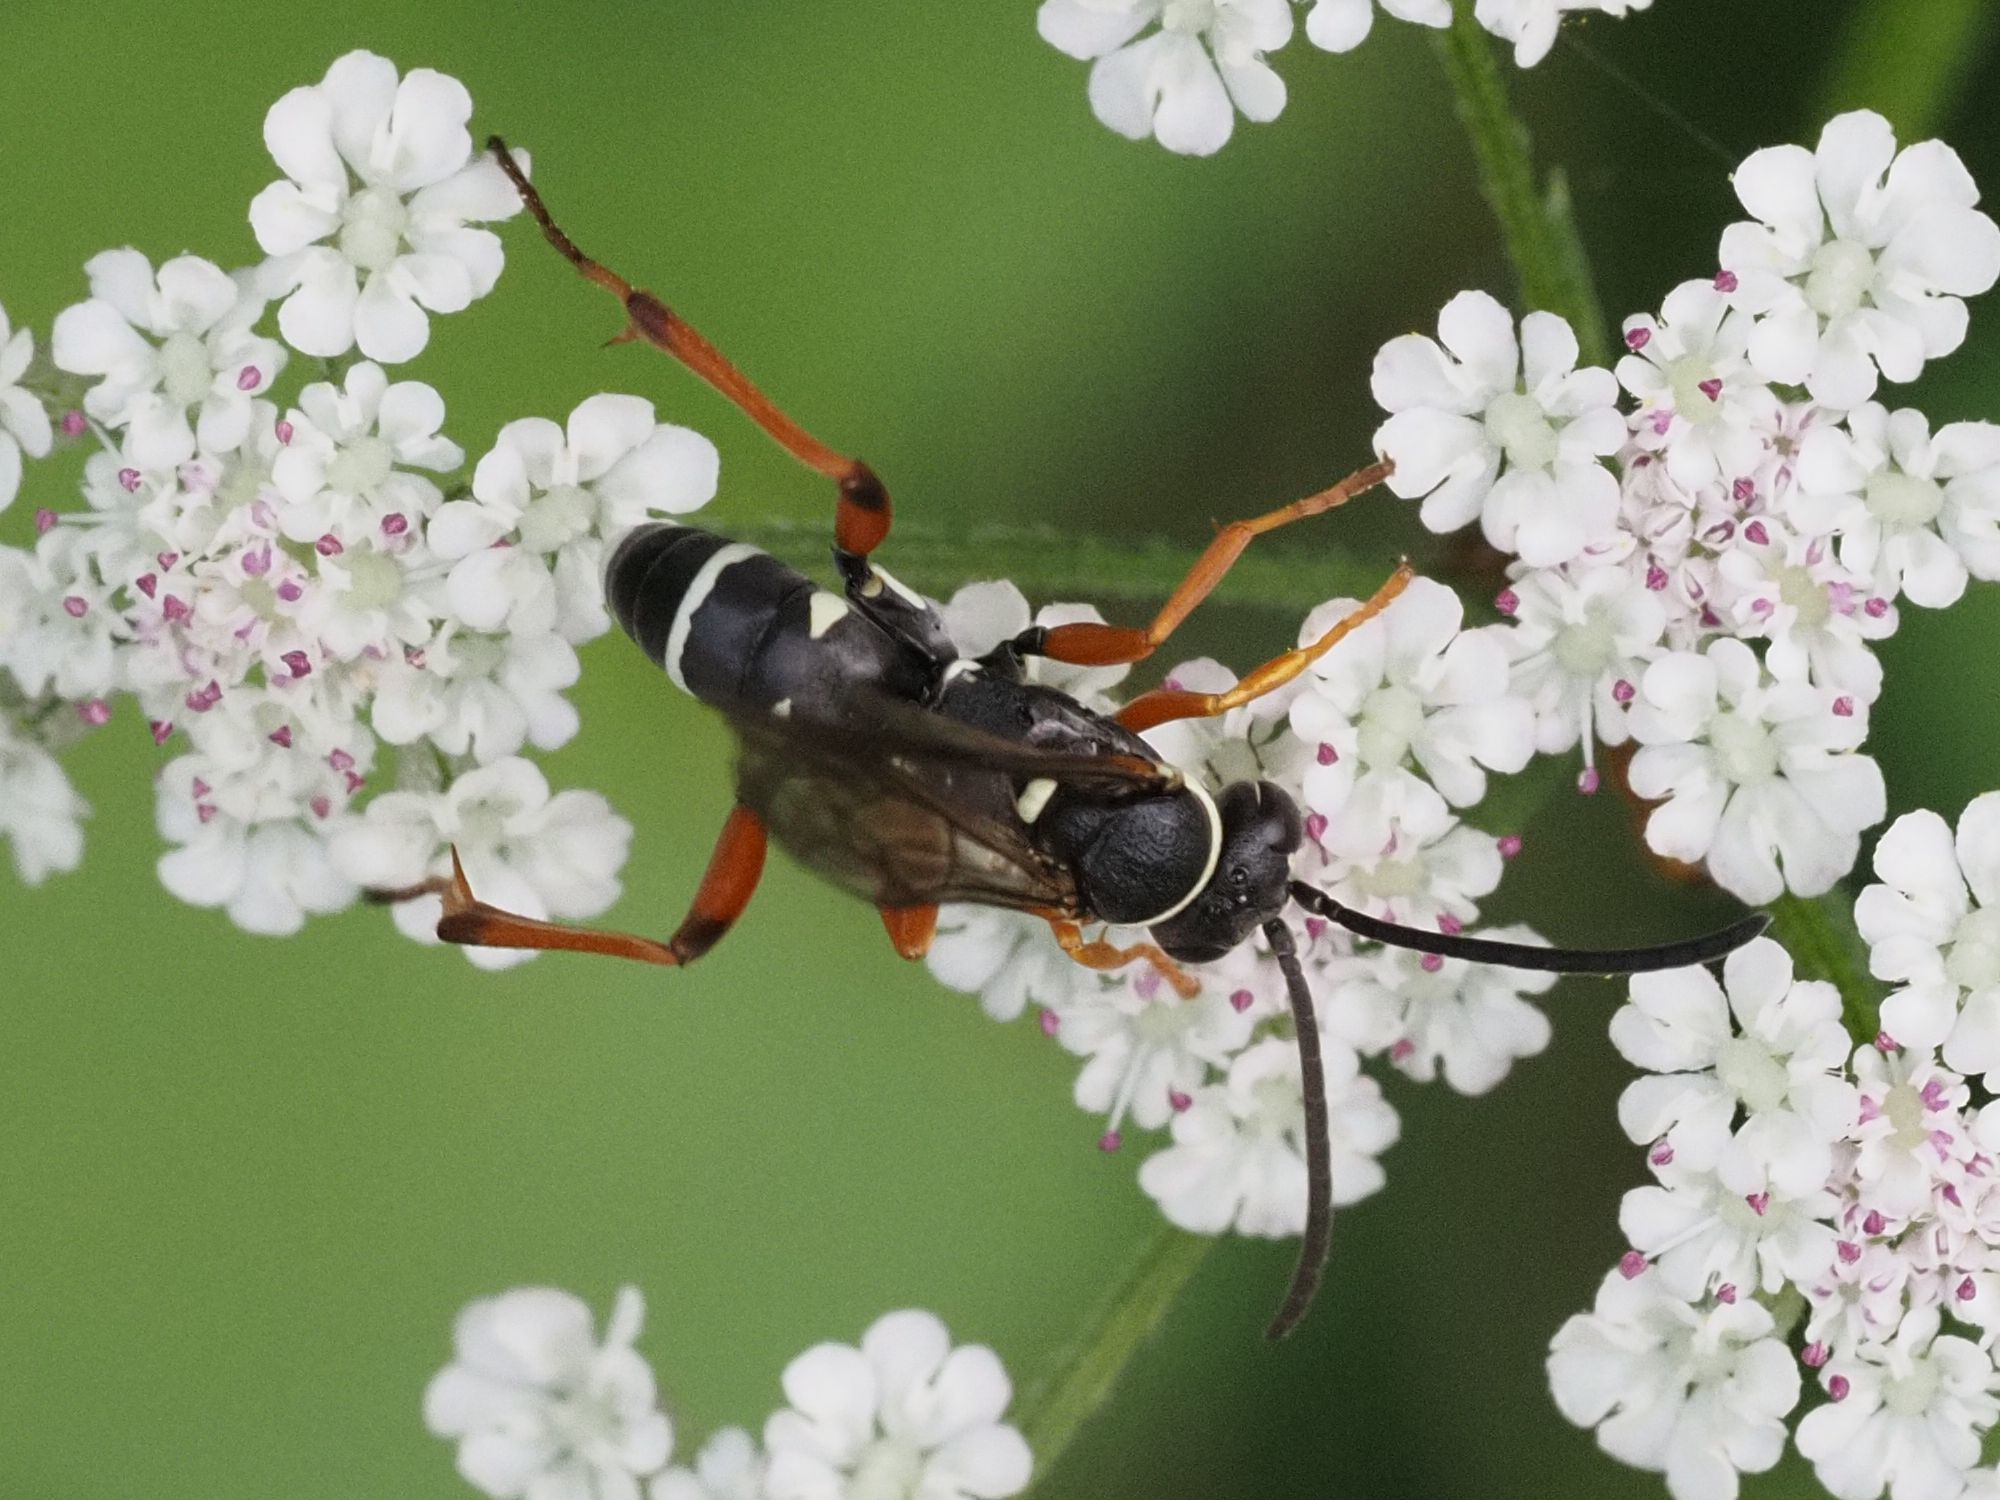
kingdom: Animalia
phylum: Arthropoda
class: Insecta
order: Hymenoptera
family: Pompilidae
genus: Ceropales
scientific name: Ceropales maculata
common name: Spider wasp
